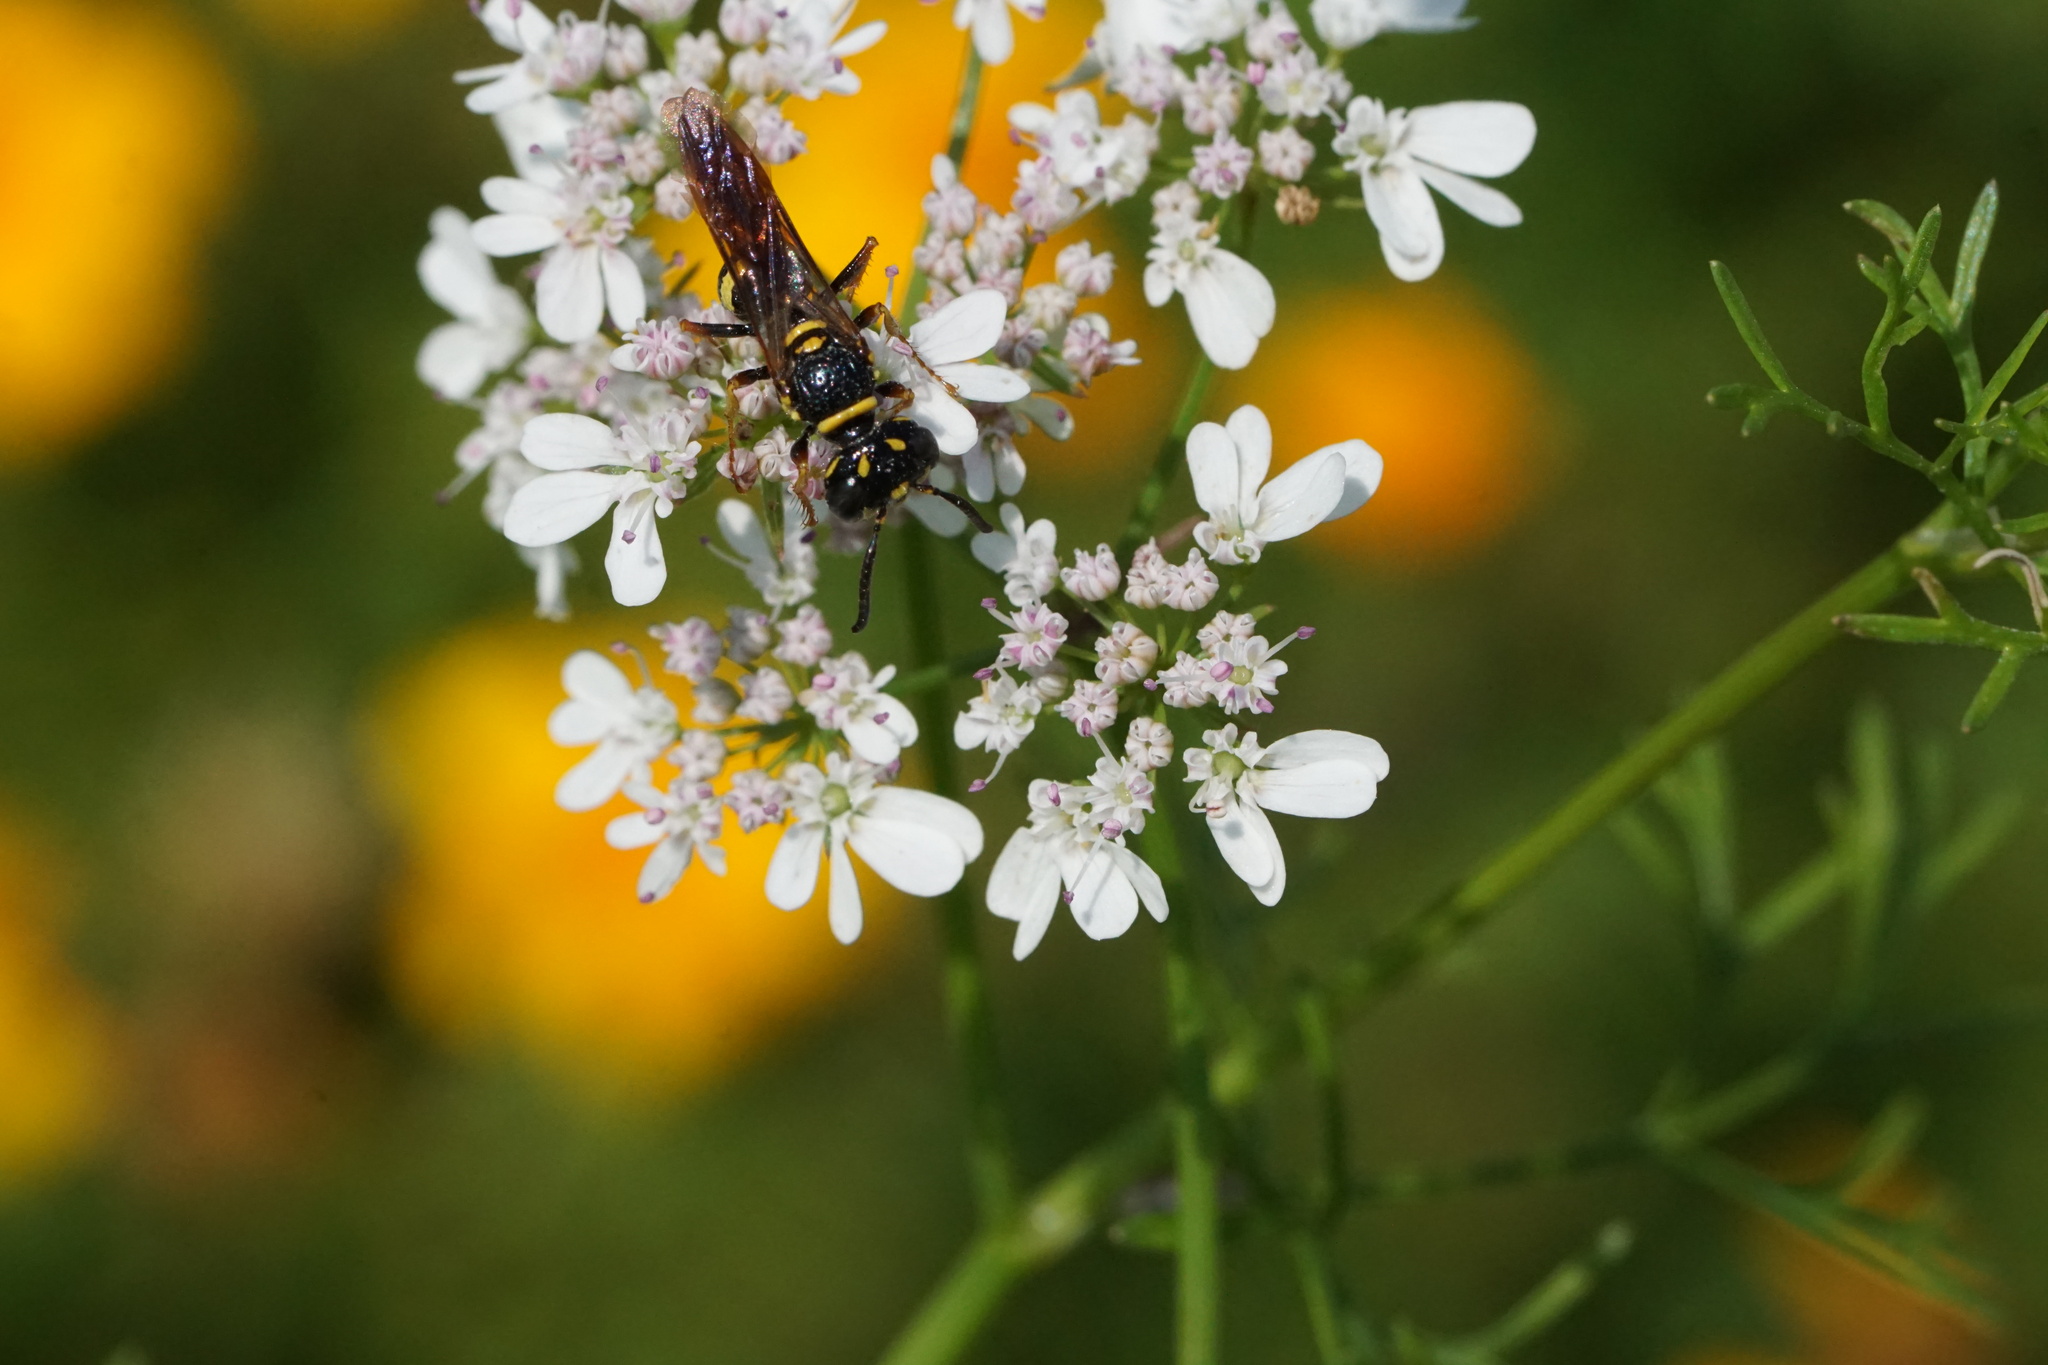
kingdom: Animalia
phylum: Arthropoda
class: Insecta
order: Hymenoptera
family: Crabronidae
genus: Philanthus
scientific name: Philanthus gibbosus
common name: Humped beewolf
